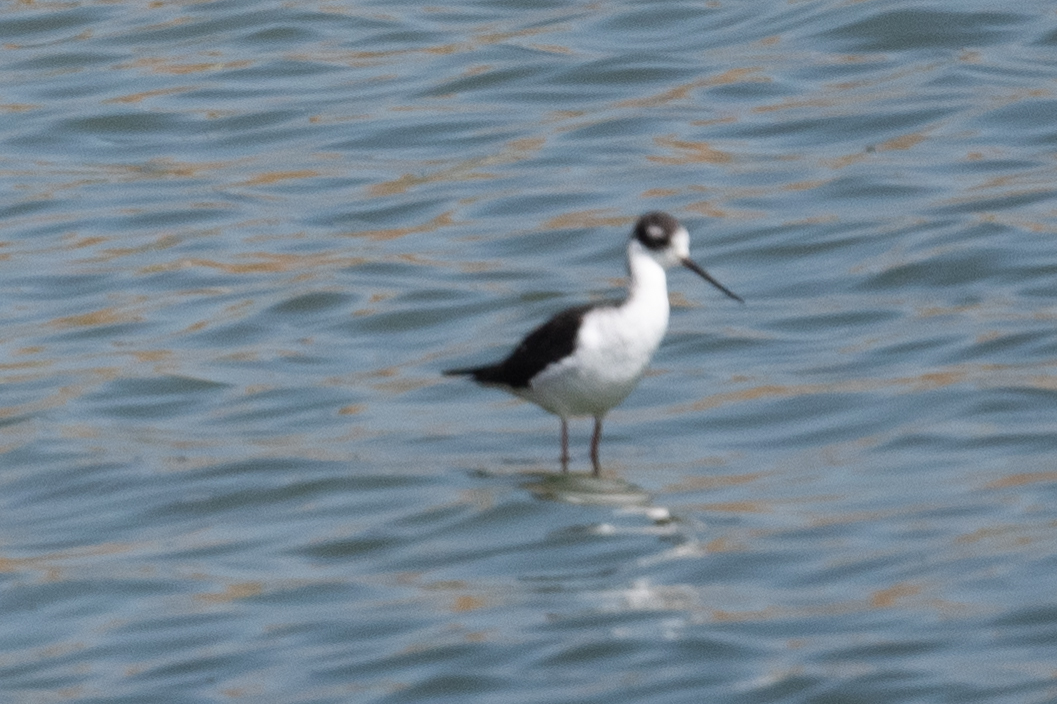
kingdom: Animalia
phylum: Chordata
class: Aves
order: Charadriiformes
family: Recurvirostridae
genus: Himantopus
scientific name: Himantopus mexicanus
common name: Black-necked stilt
